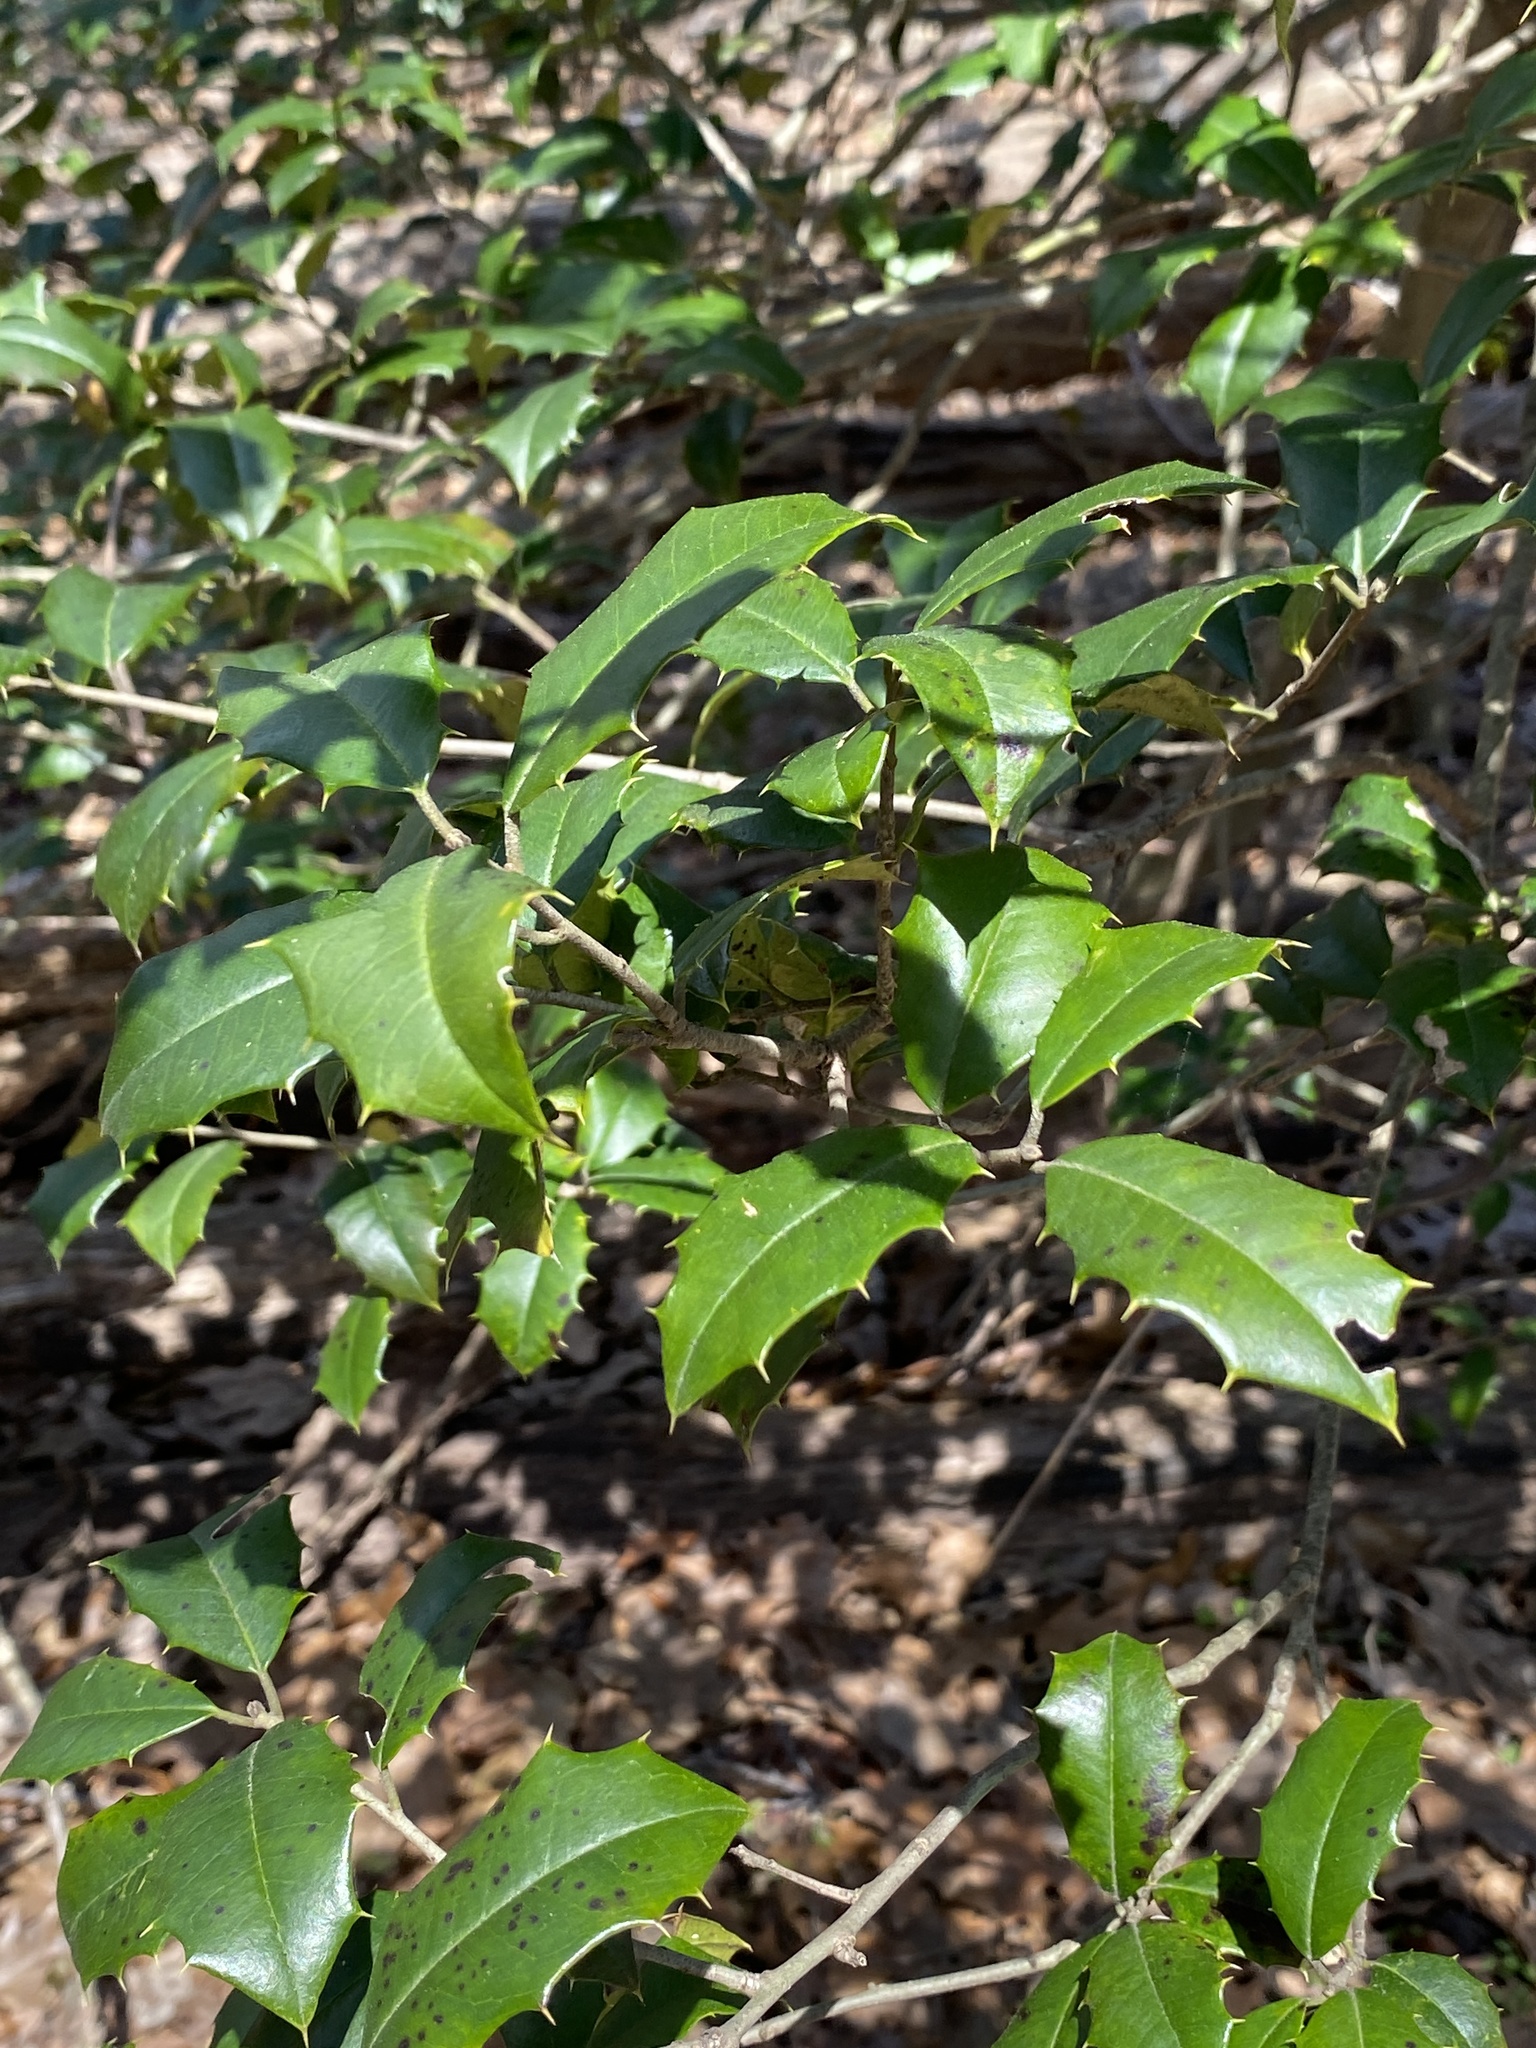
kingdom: Plantae
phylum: Tracheophyta
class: Magnoliopsida
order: Aquifoliales
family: Aquifoliaceae
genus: Ilex
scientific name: Ilex opaca
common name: American holly
